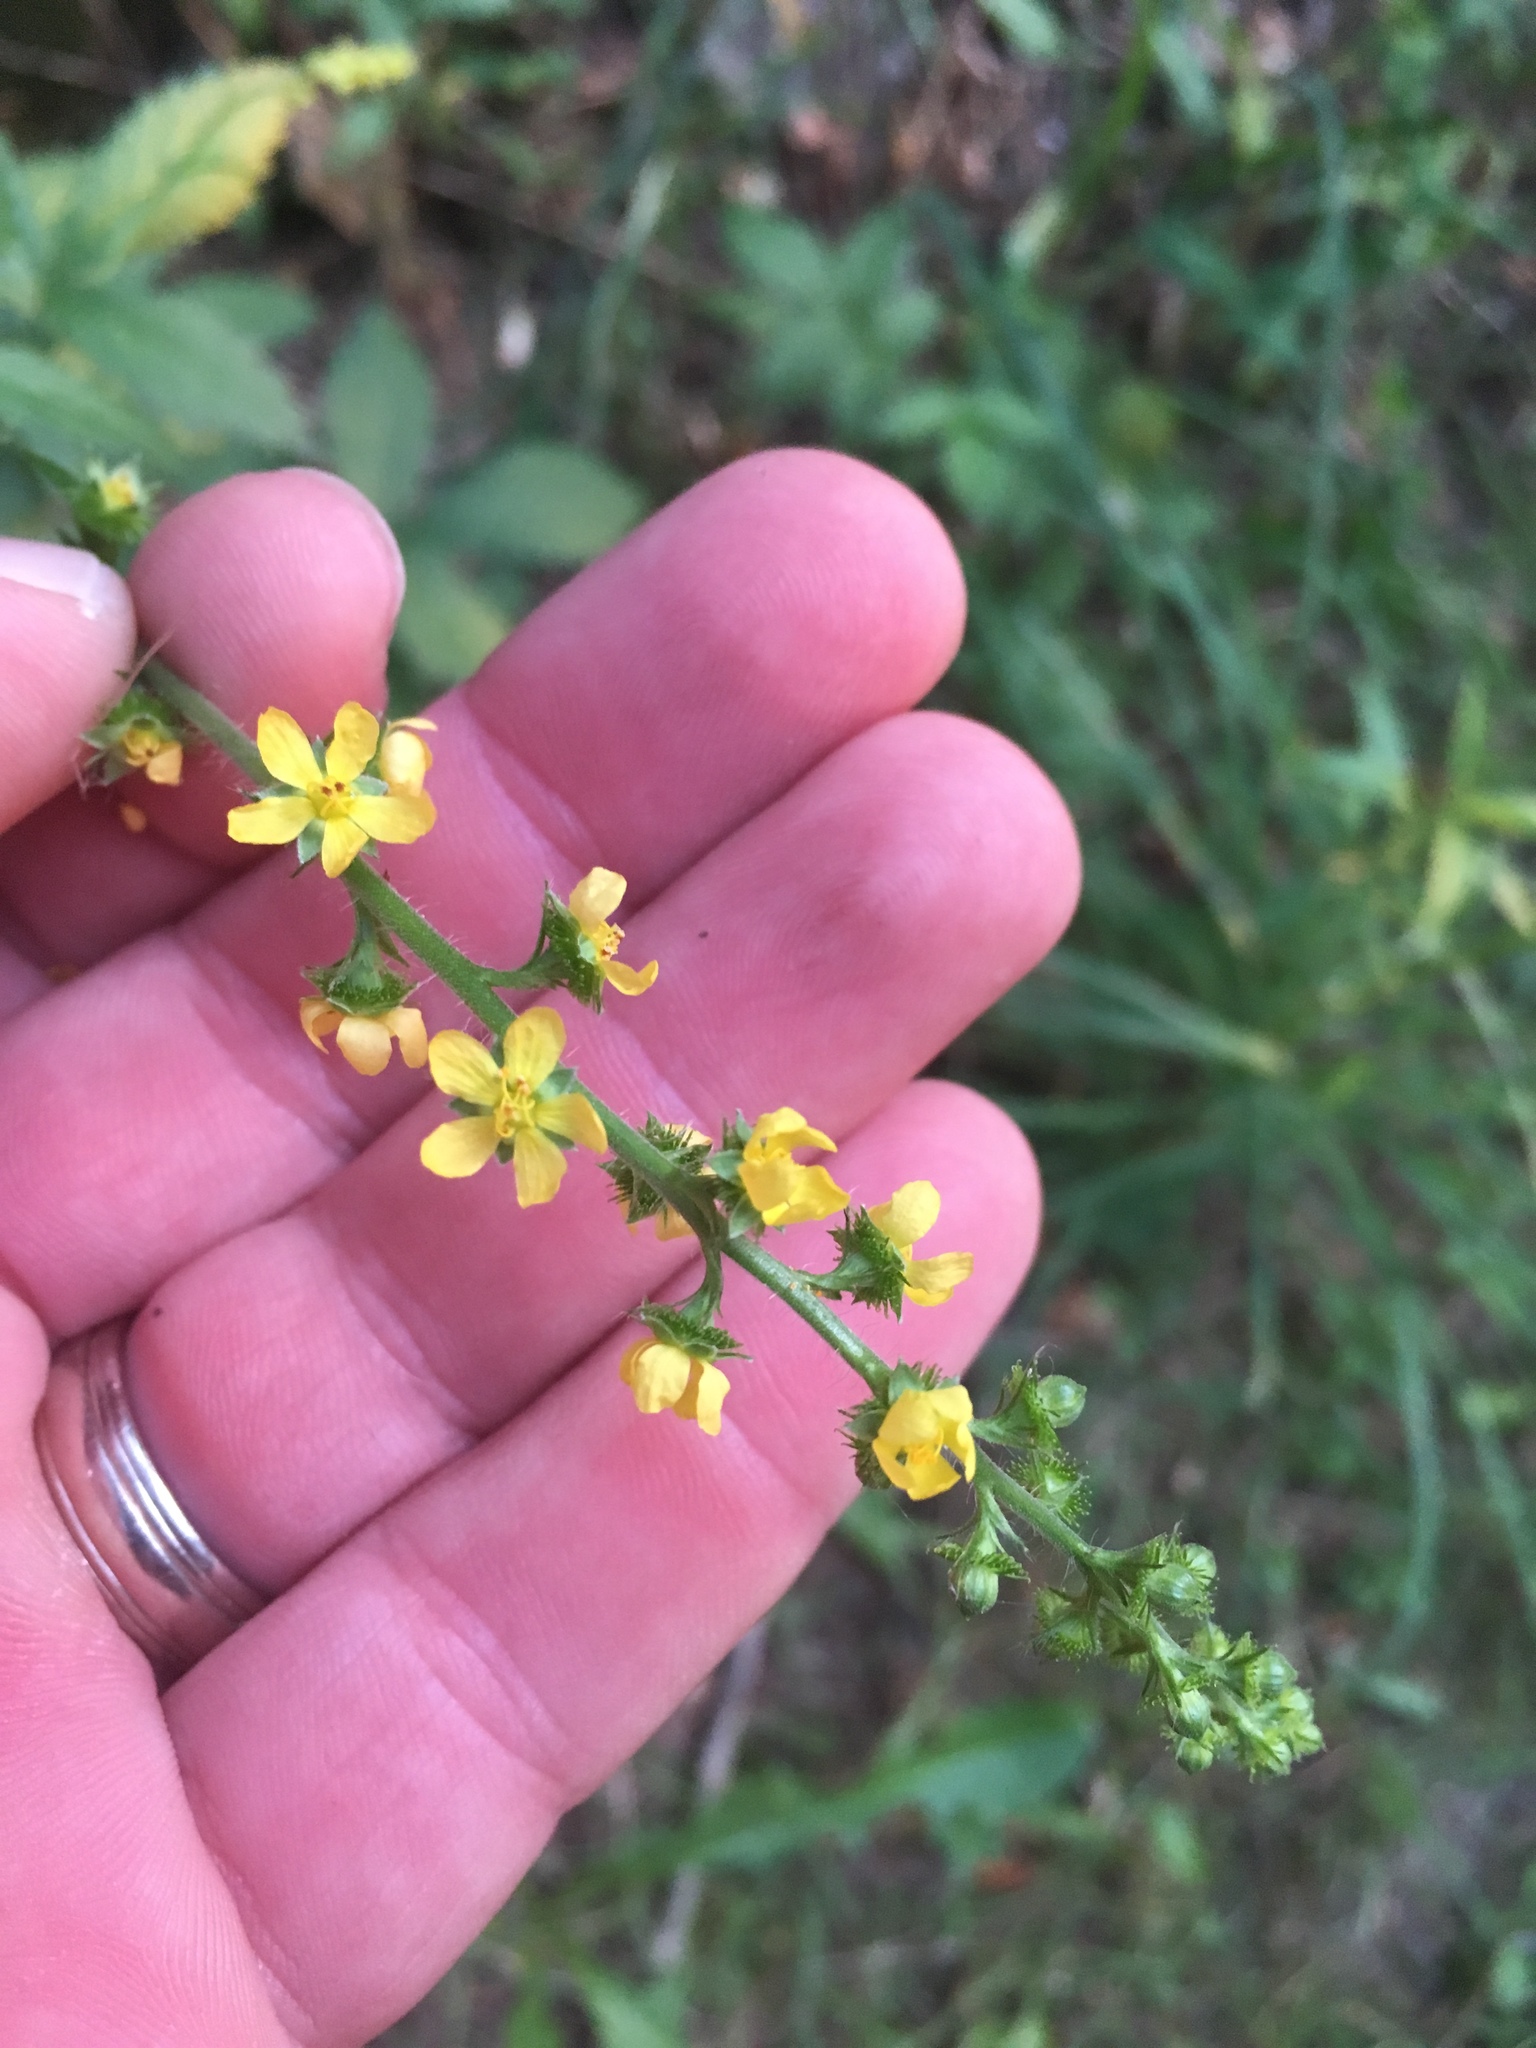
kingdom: Plantae
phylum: Tracheophyta
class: Magnoliopsida
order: Rosales
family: Rosaceae
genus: Agrimonia
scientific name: Agrimonia gryposepala
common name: Common agrimony
